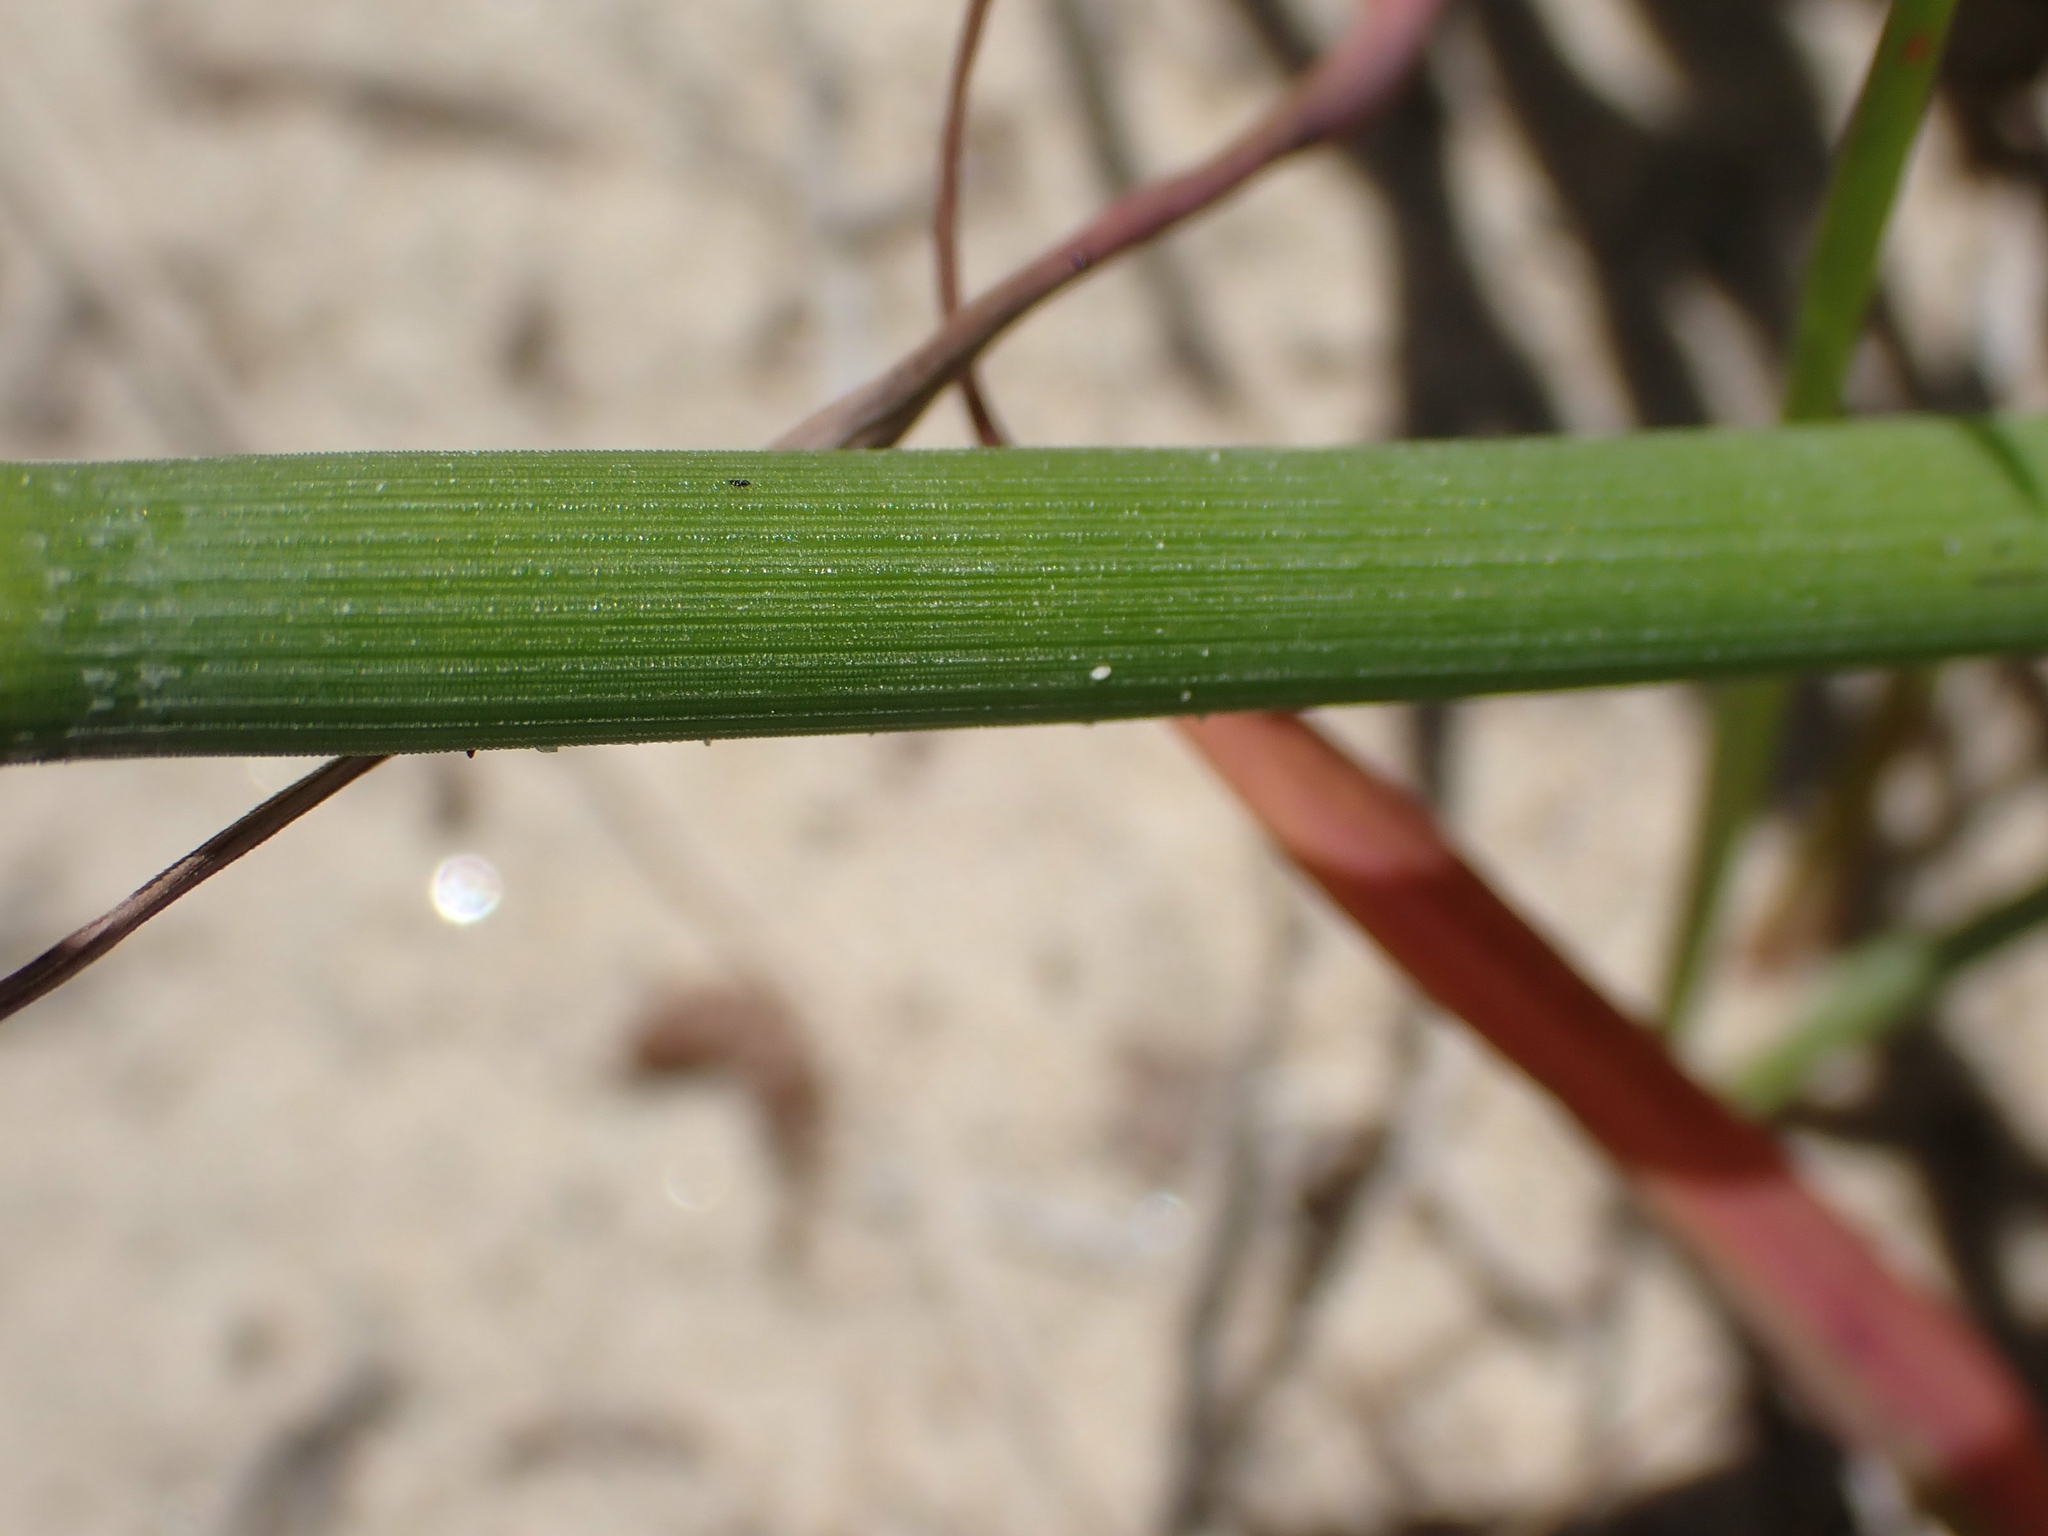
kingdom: Plantae
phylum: Tracheophyta
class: Polypodiopsida
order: Equisetales
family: Equisetaceae
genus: Equisetum
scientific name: Equisetum praealtum
